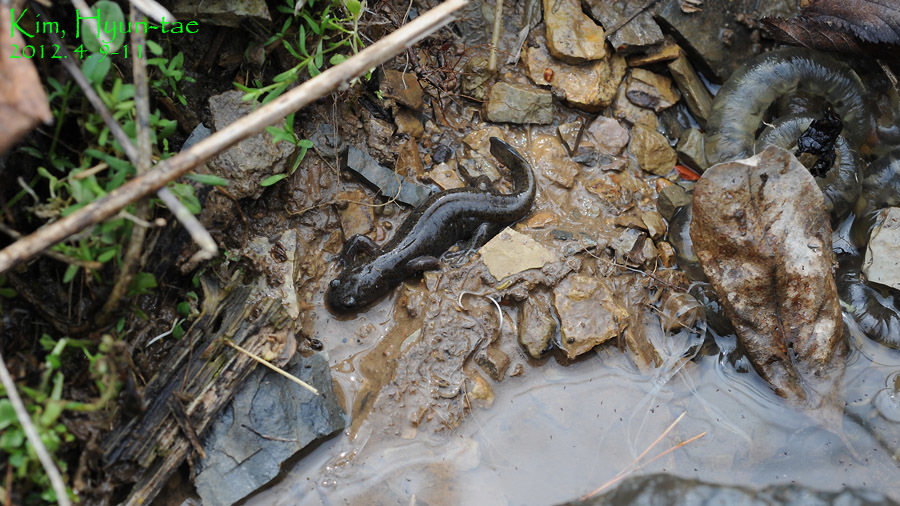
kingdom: Animalia
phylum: Chordata
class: Amphibia
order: Caudata
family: Hynobiidae
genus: Hynobius
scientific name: Hynobius leechii
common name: Gensan salamander
